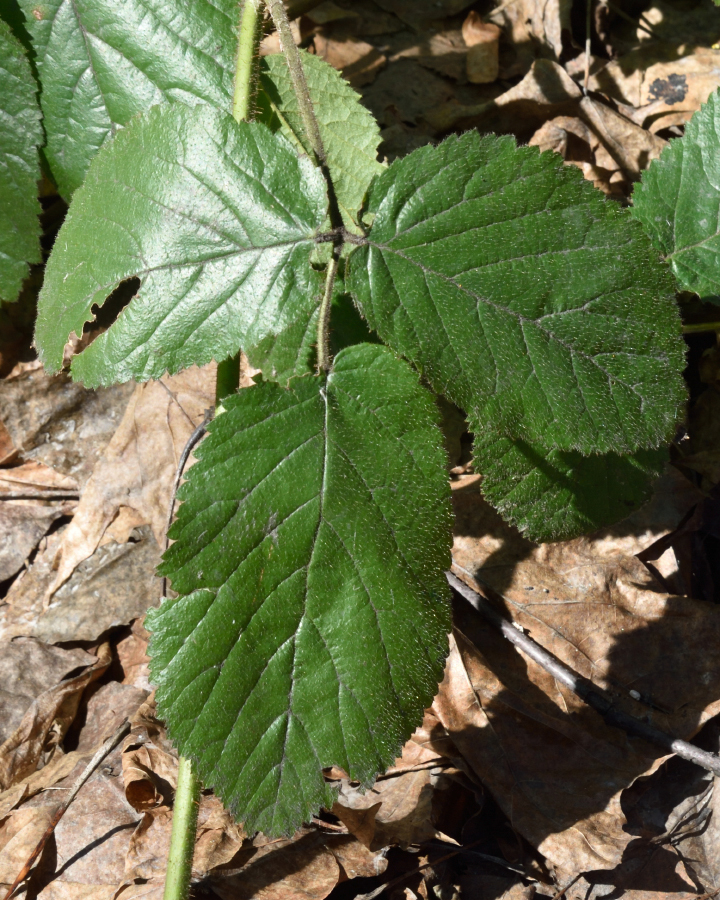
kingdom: Plantae
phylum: Tracheophyta
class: Magnoliopsida
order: Rosales
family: Rosaceae
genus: Rubus
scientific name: Rubus hirtus
